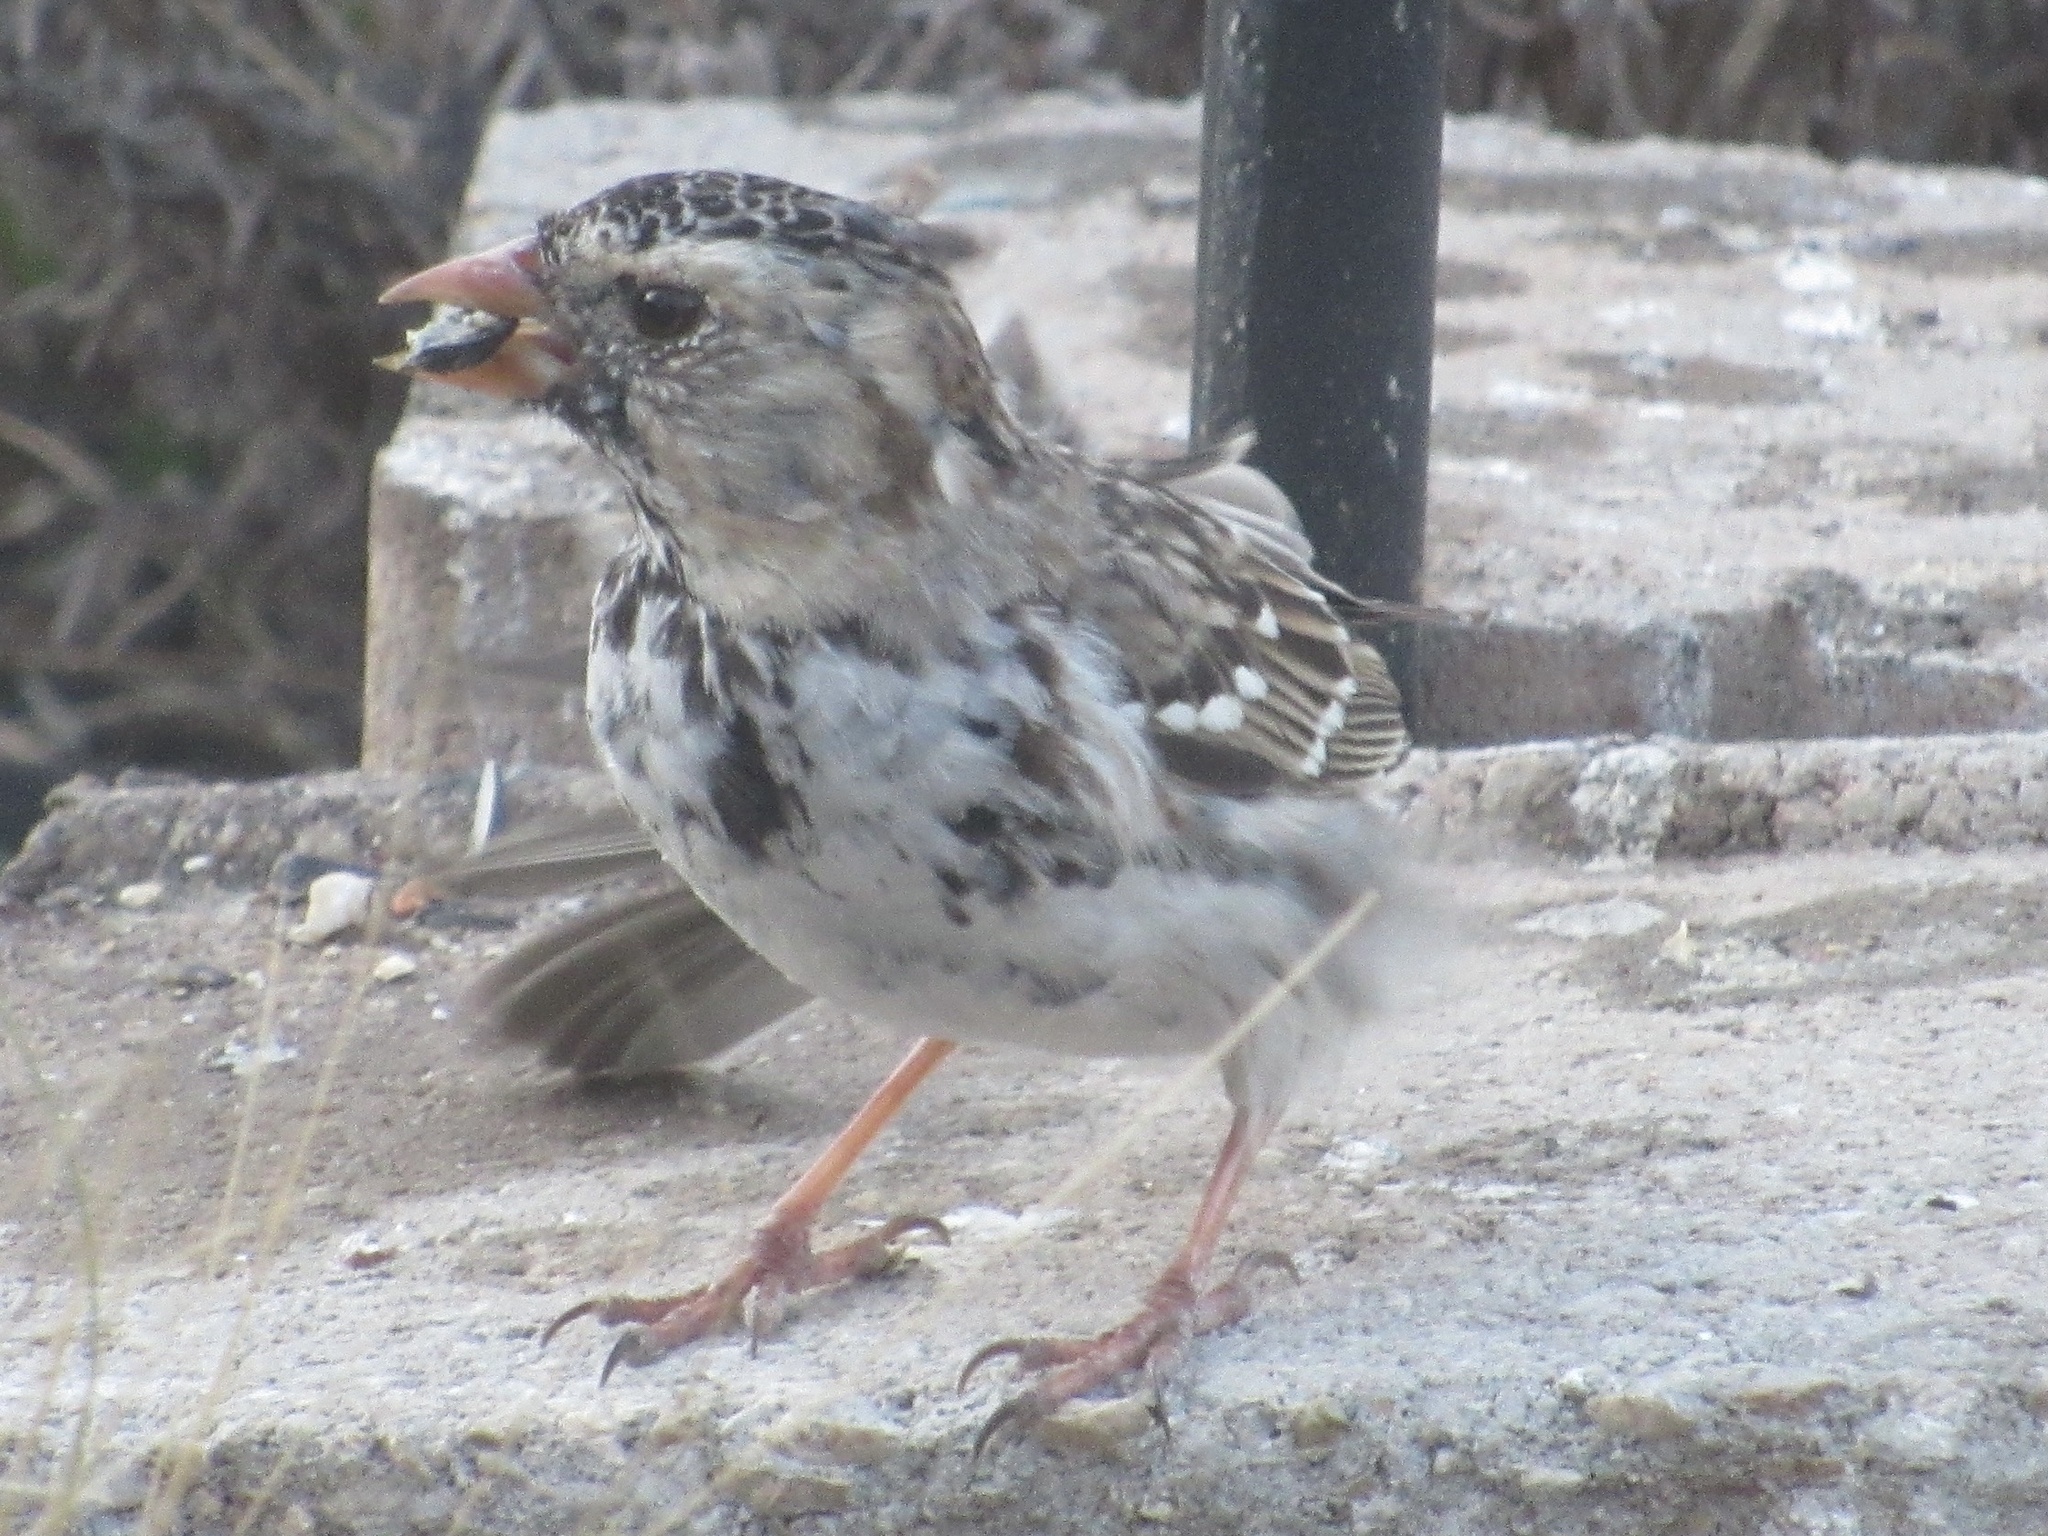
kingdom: Animalia
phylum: Chordata
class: Aves
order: Passeriformes
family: Passerellidae
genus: Zonotrichia
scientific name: Zonotrichia querula
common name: Harris's sparrow
